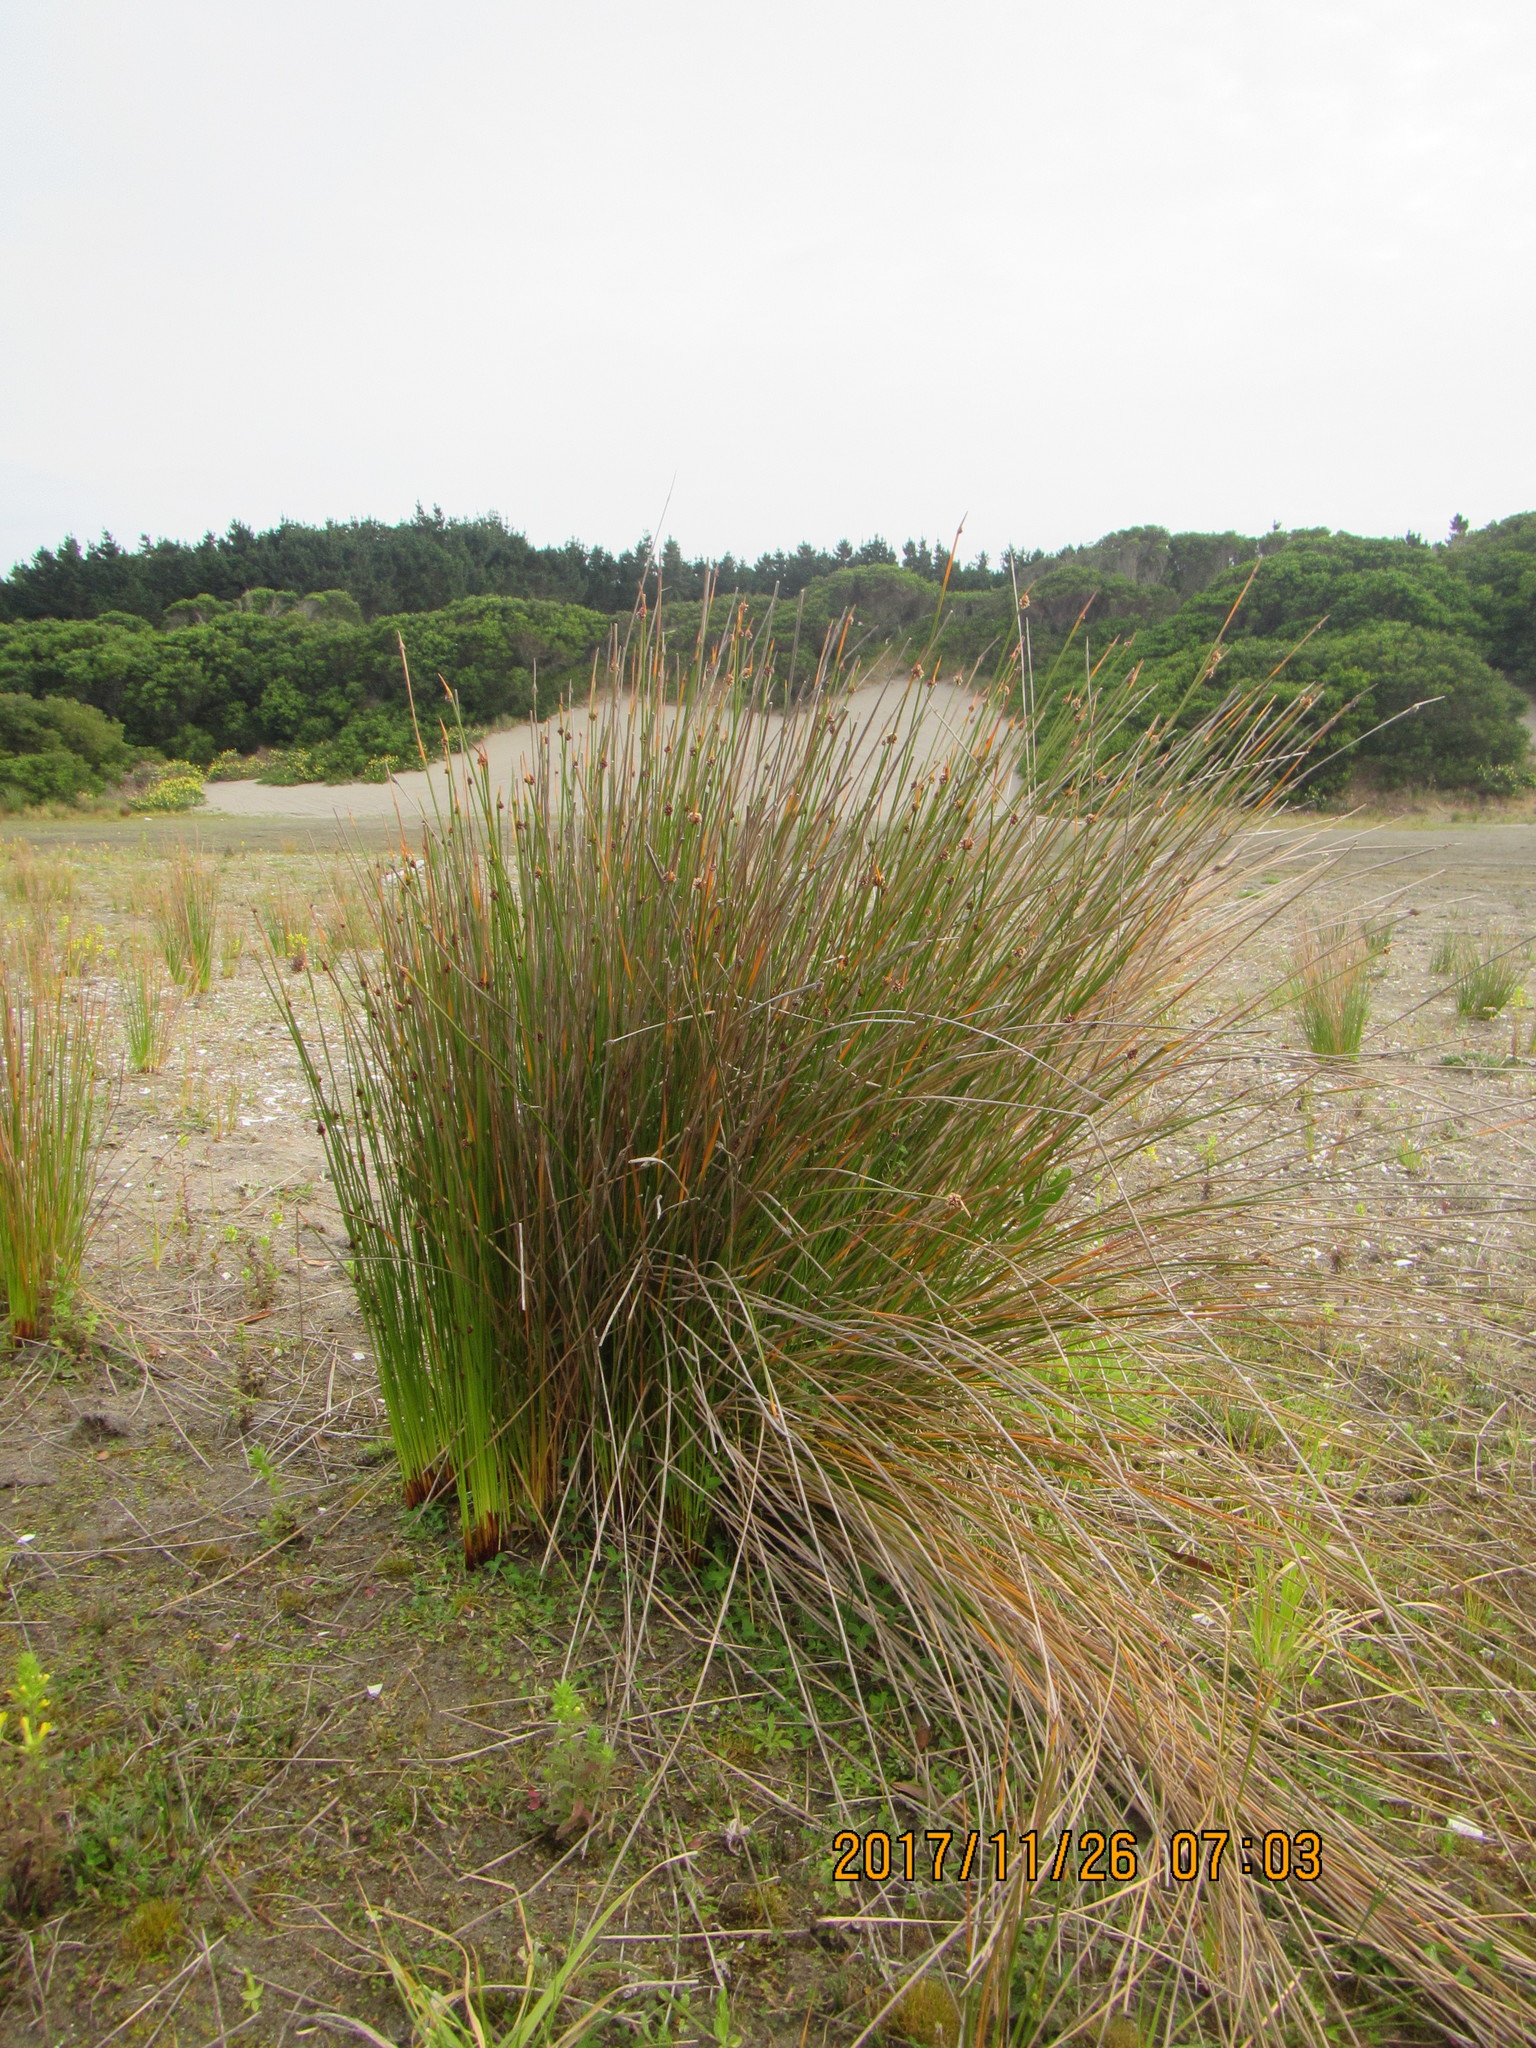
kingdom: Plantae
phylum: Tracheophyta
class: Liliopsida
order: Poales
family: Cyperaceae
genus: Ficinia
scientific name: Ficinia nodosa
